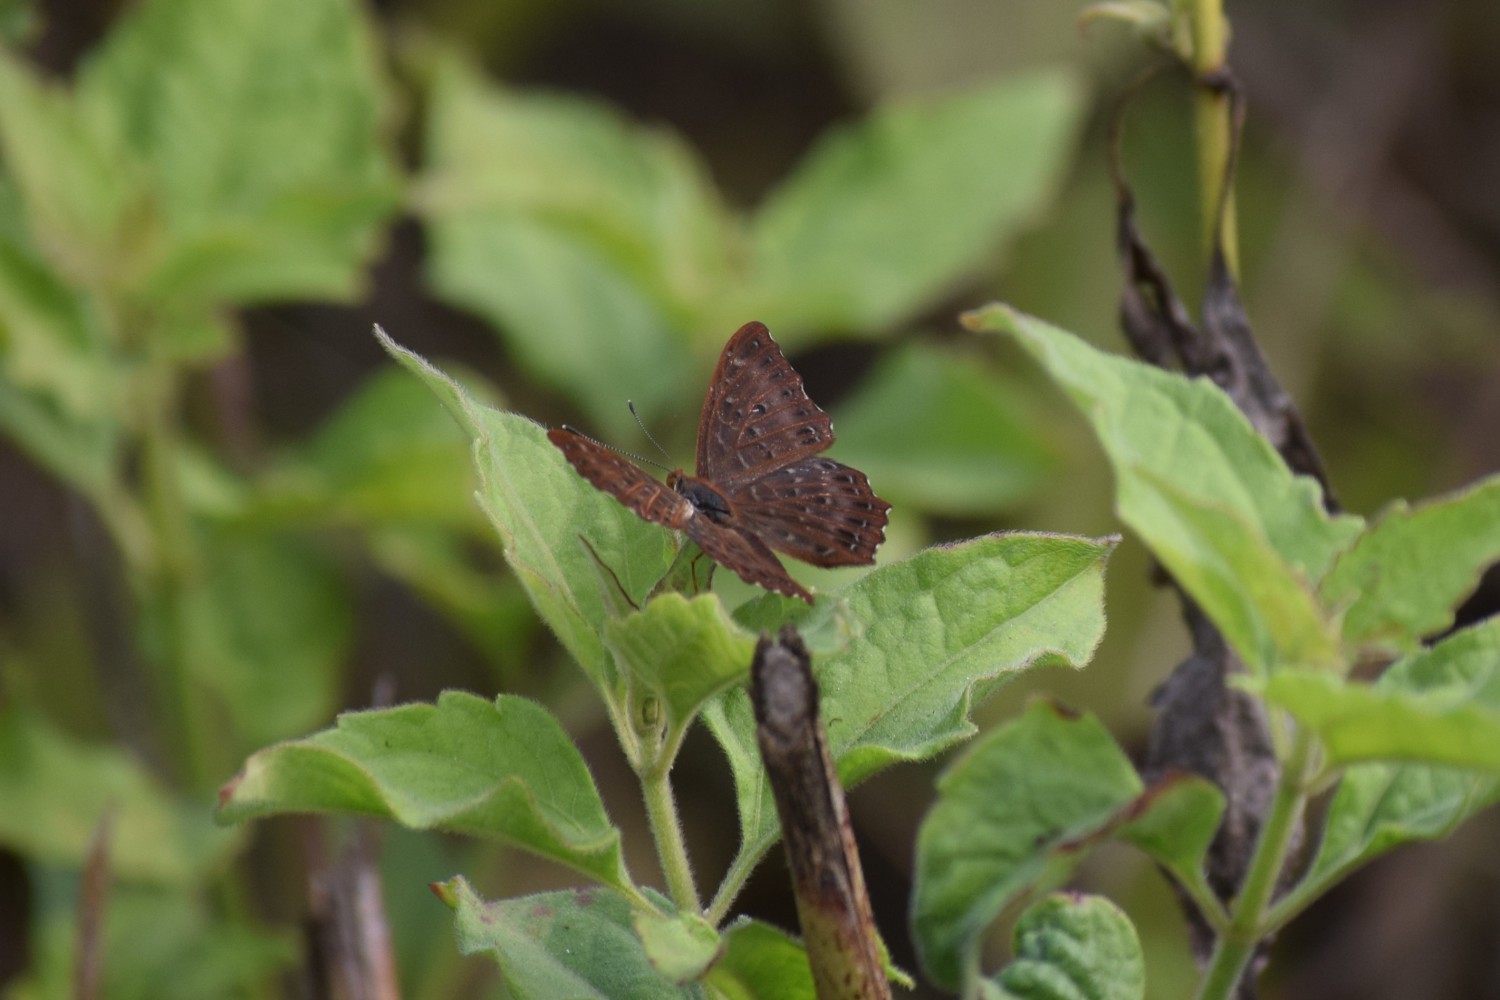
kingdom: Animalia
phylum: Arthropoda
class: Insecta
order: Lepidoptera
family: Riodinidae
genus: Zemeros
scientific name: Zemeros flegyas
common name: Punchinello
